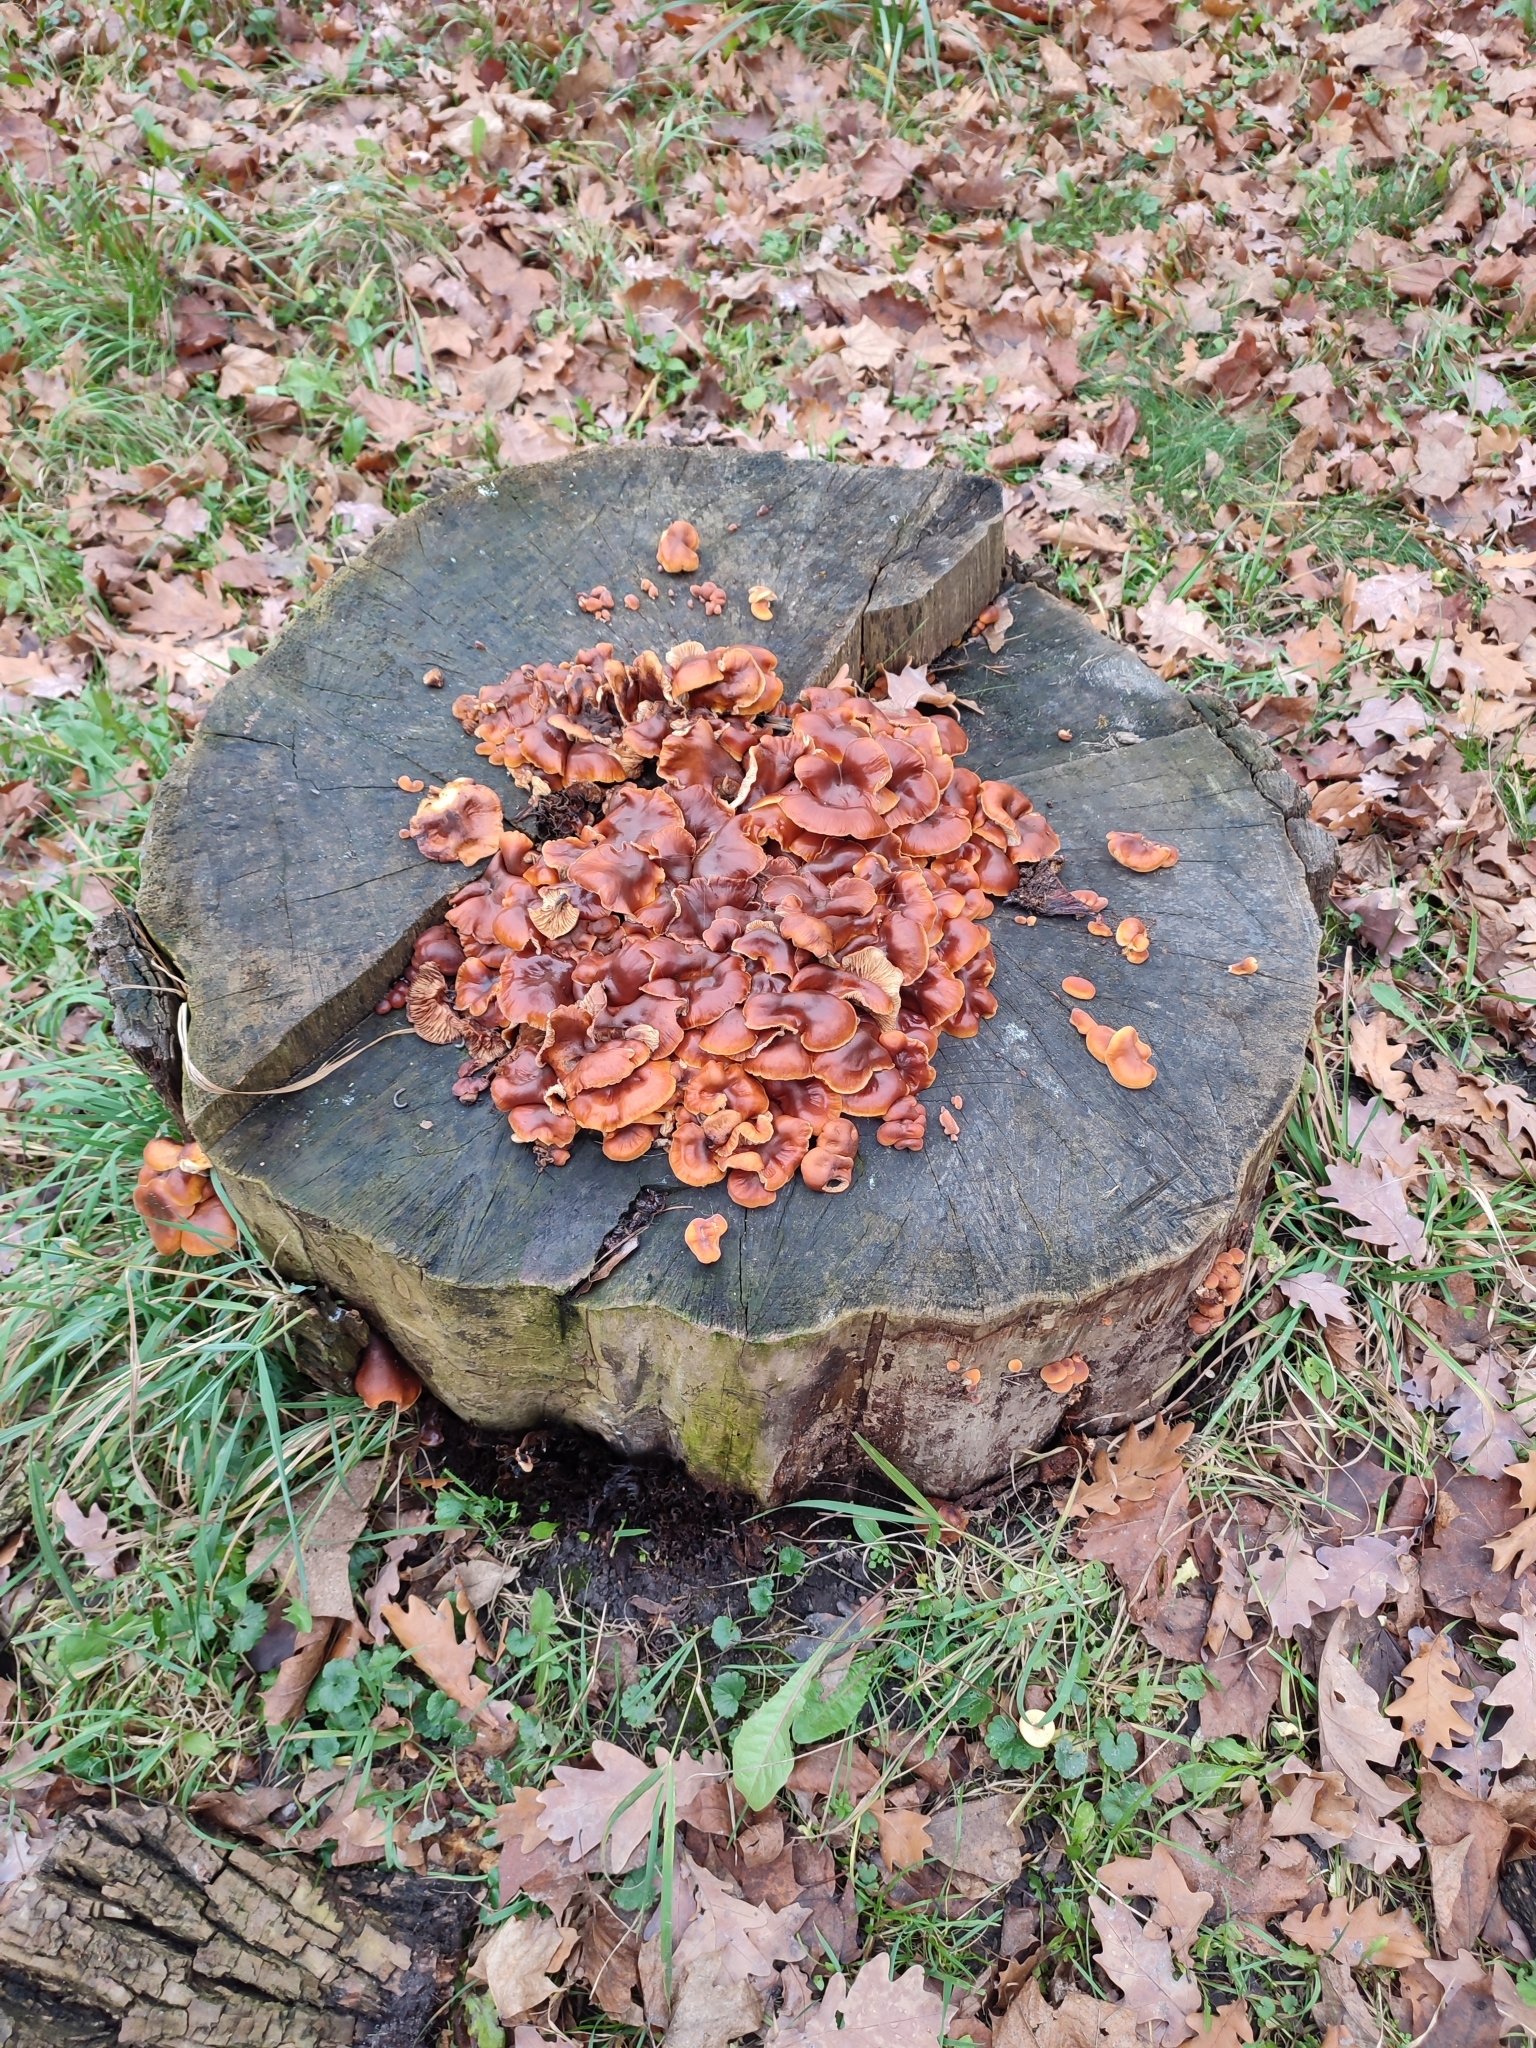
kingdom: Fungi
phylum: Basidiomycota
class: Agaricomycetes
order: Agaricales
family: Physalacriaceae
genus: Flammulina
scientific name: Flammulina
